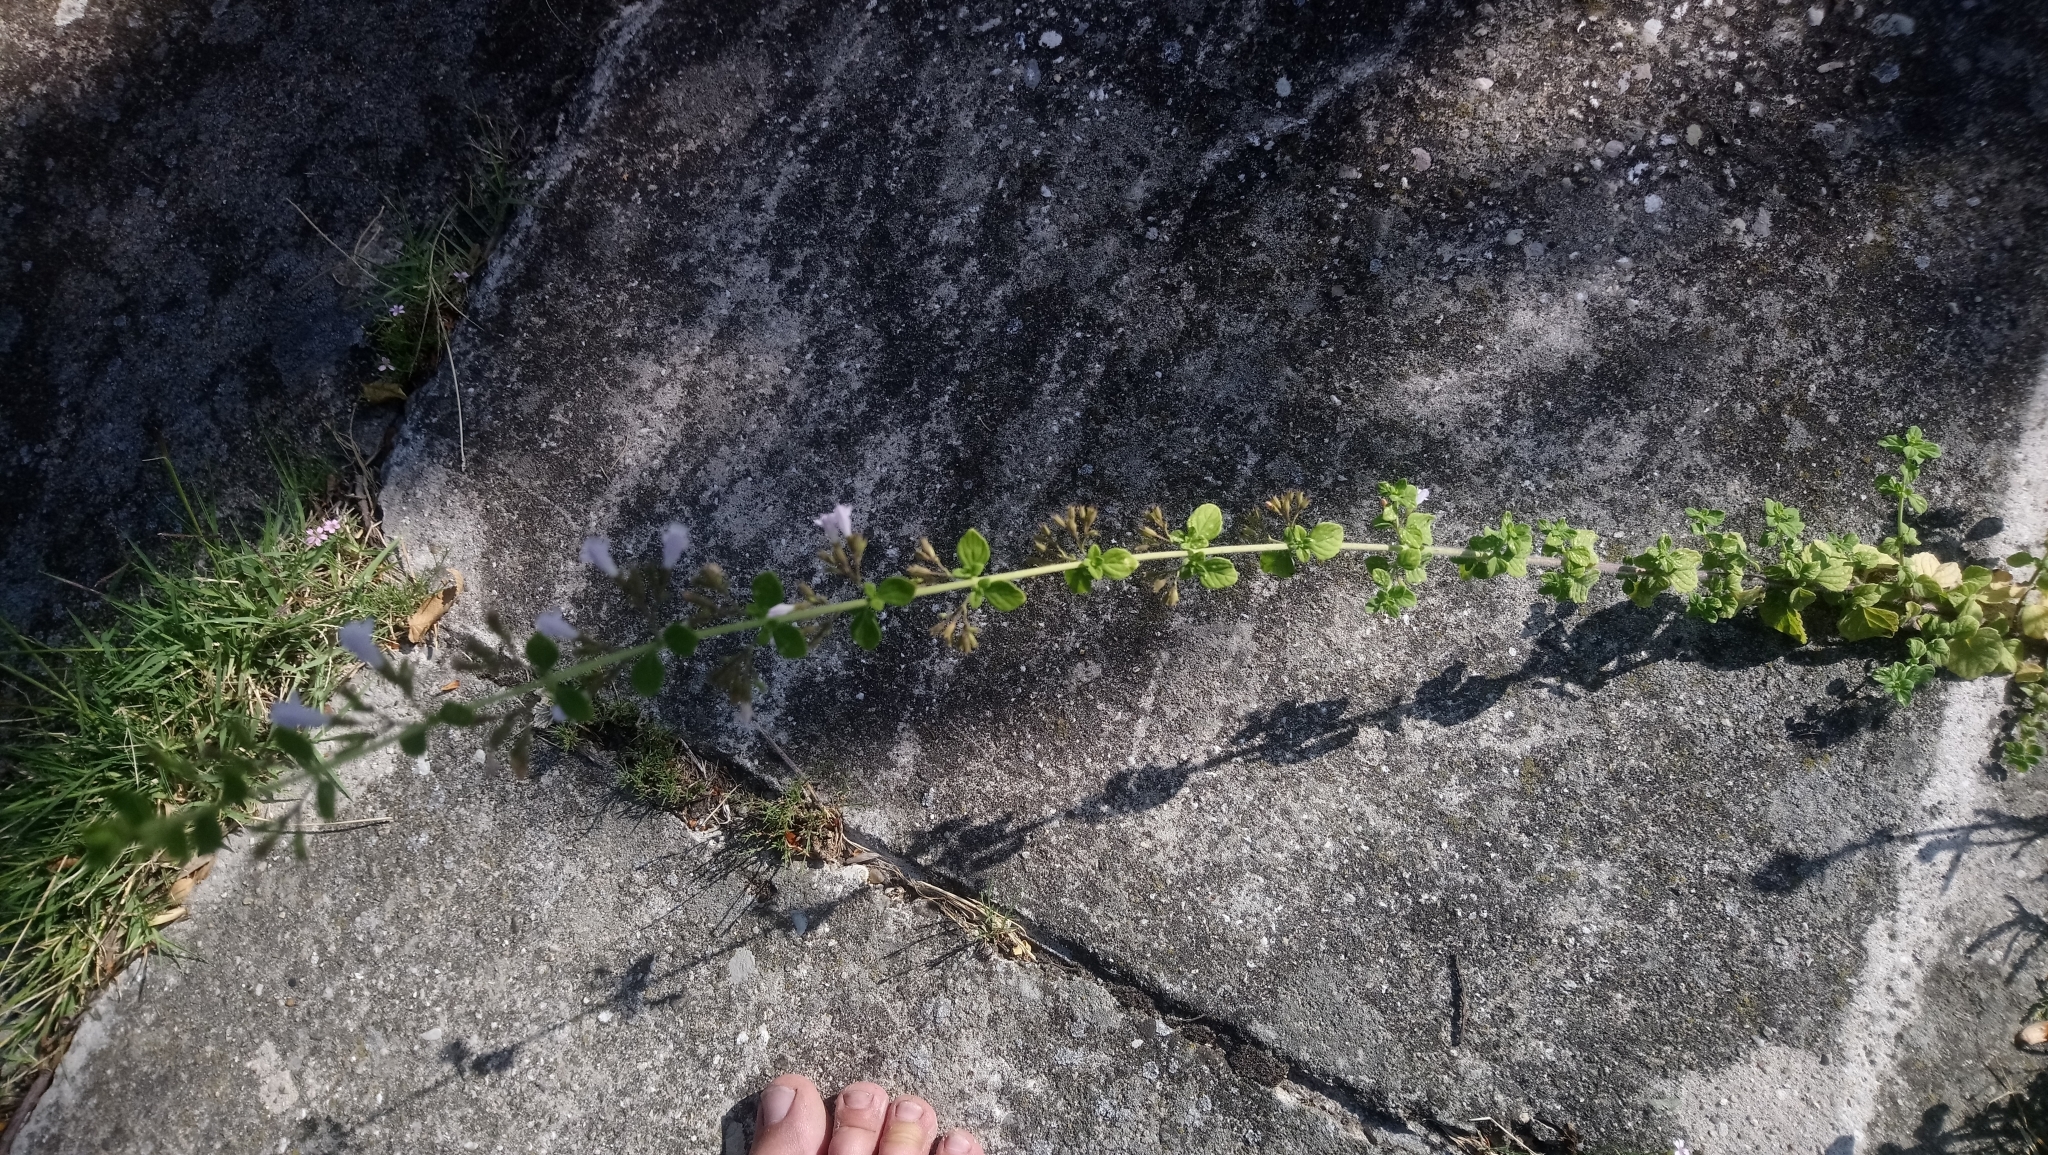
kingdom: Plantae
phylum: Tracheophyta
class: Magnoliopsida
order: Lamiales
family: Lamiaceae
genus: Clinopodium
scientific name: Clinopodium nepeta
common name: Lesser calamint
